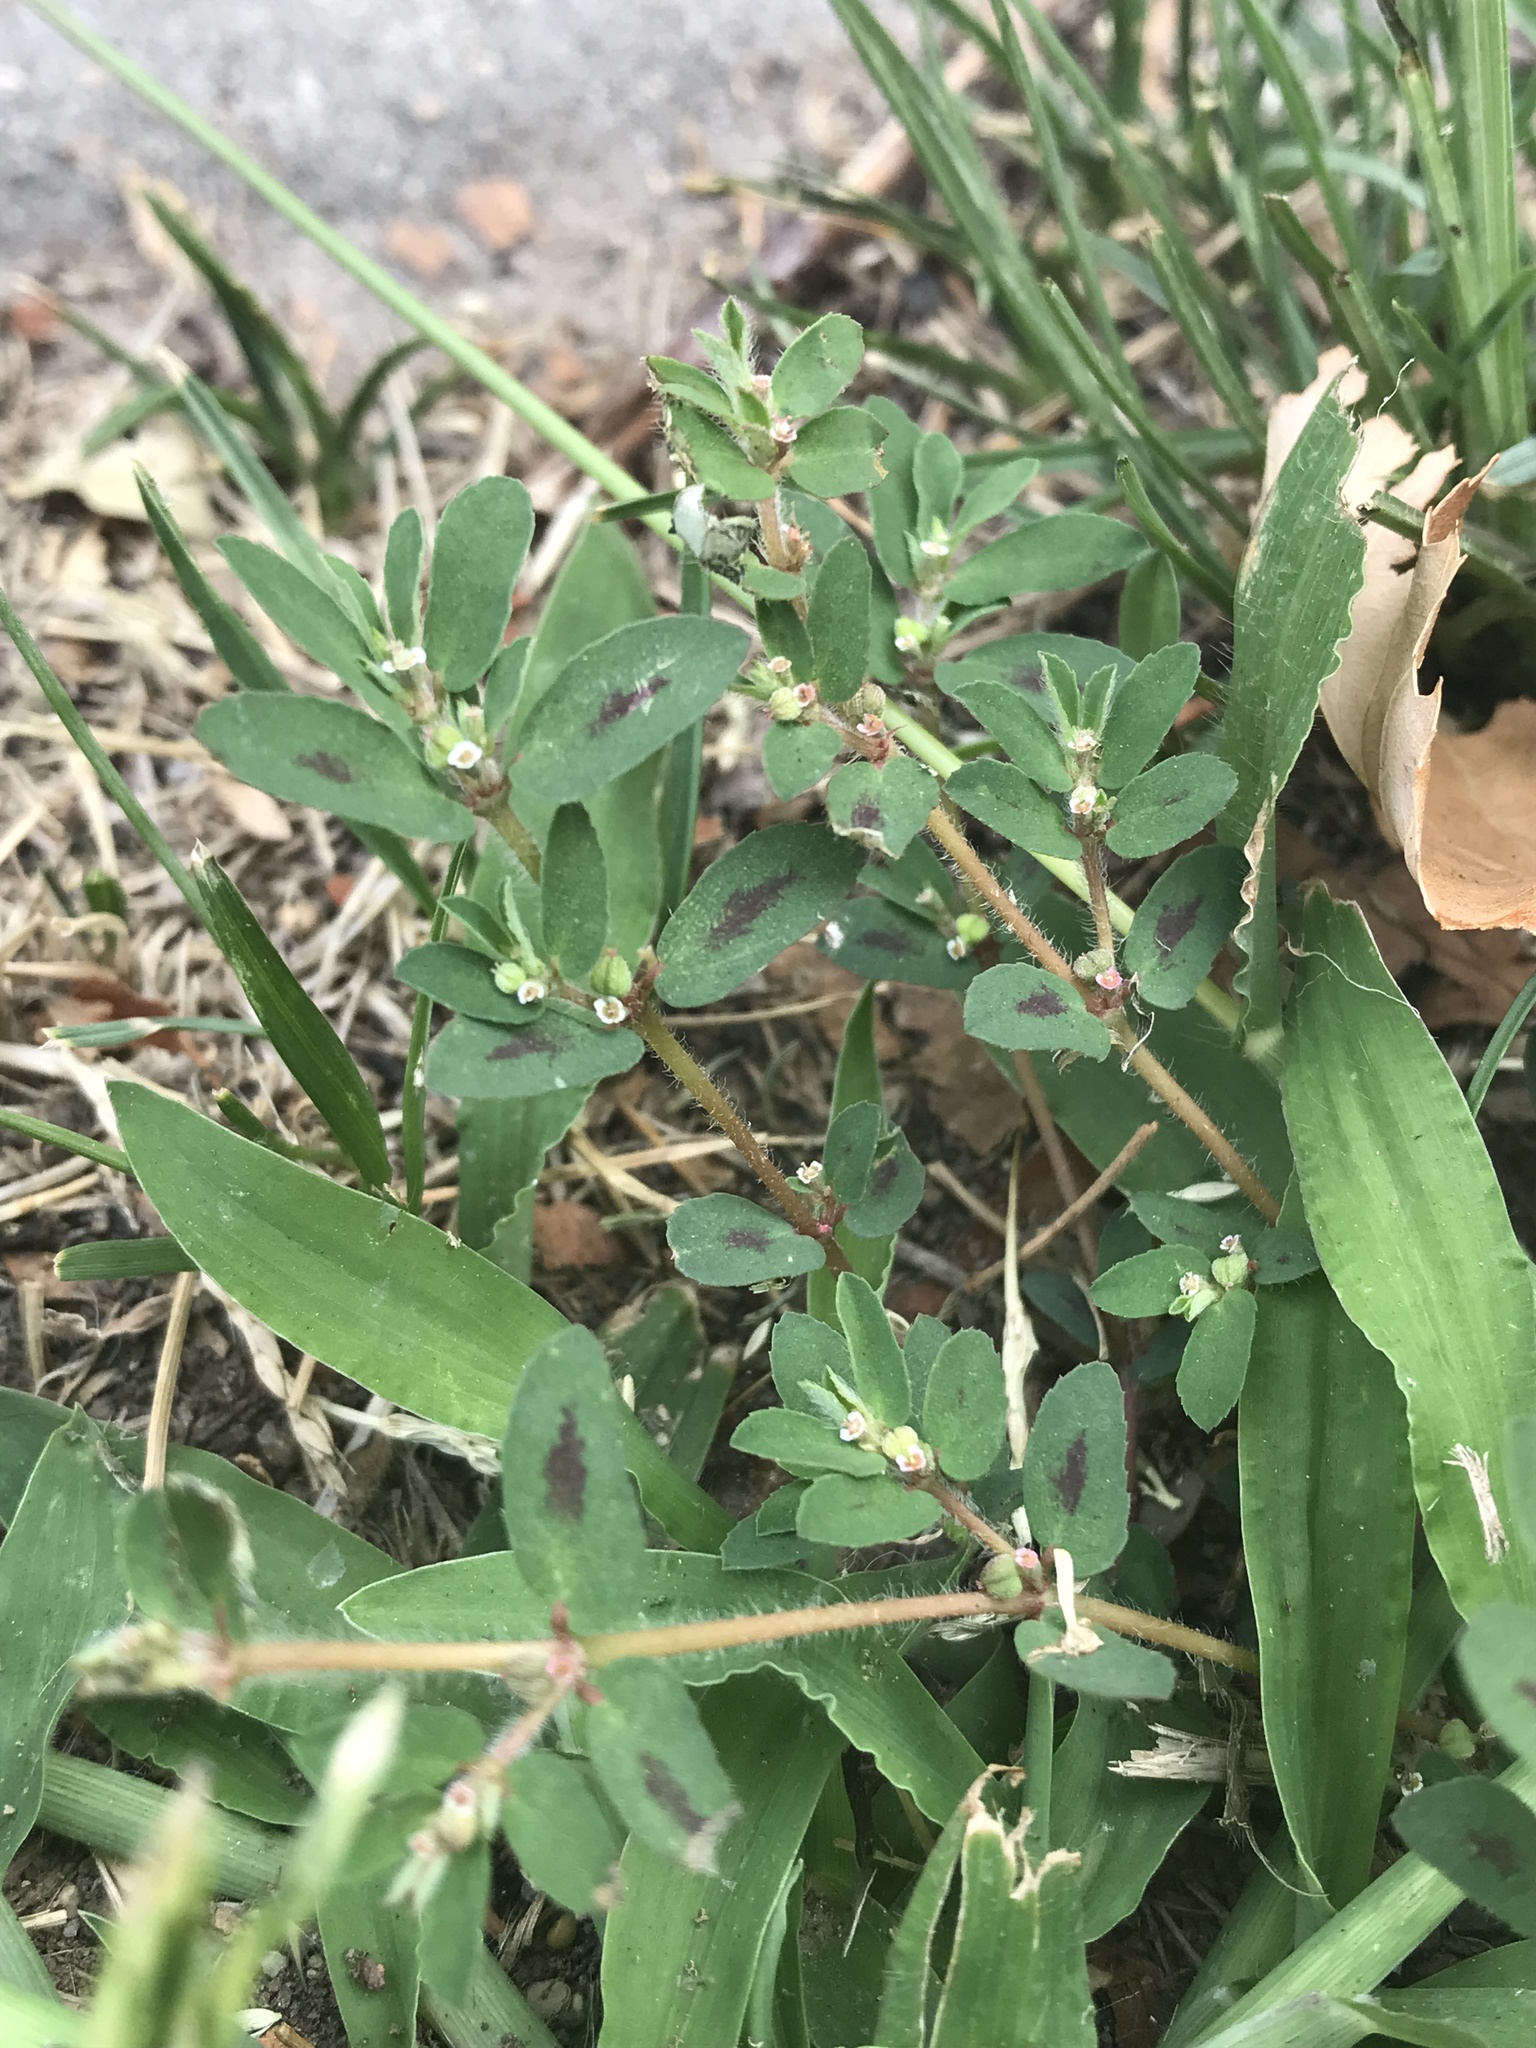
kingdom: Plantae
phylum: Tracheophyta
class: Magnoliopsida
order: Malpighiales
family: Euphorbiaceae
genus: Euphorbia
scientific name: Euphorbia maculata
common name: Spotted spurge
